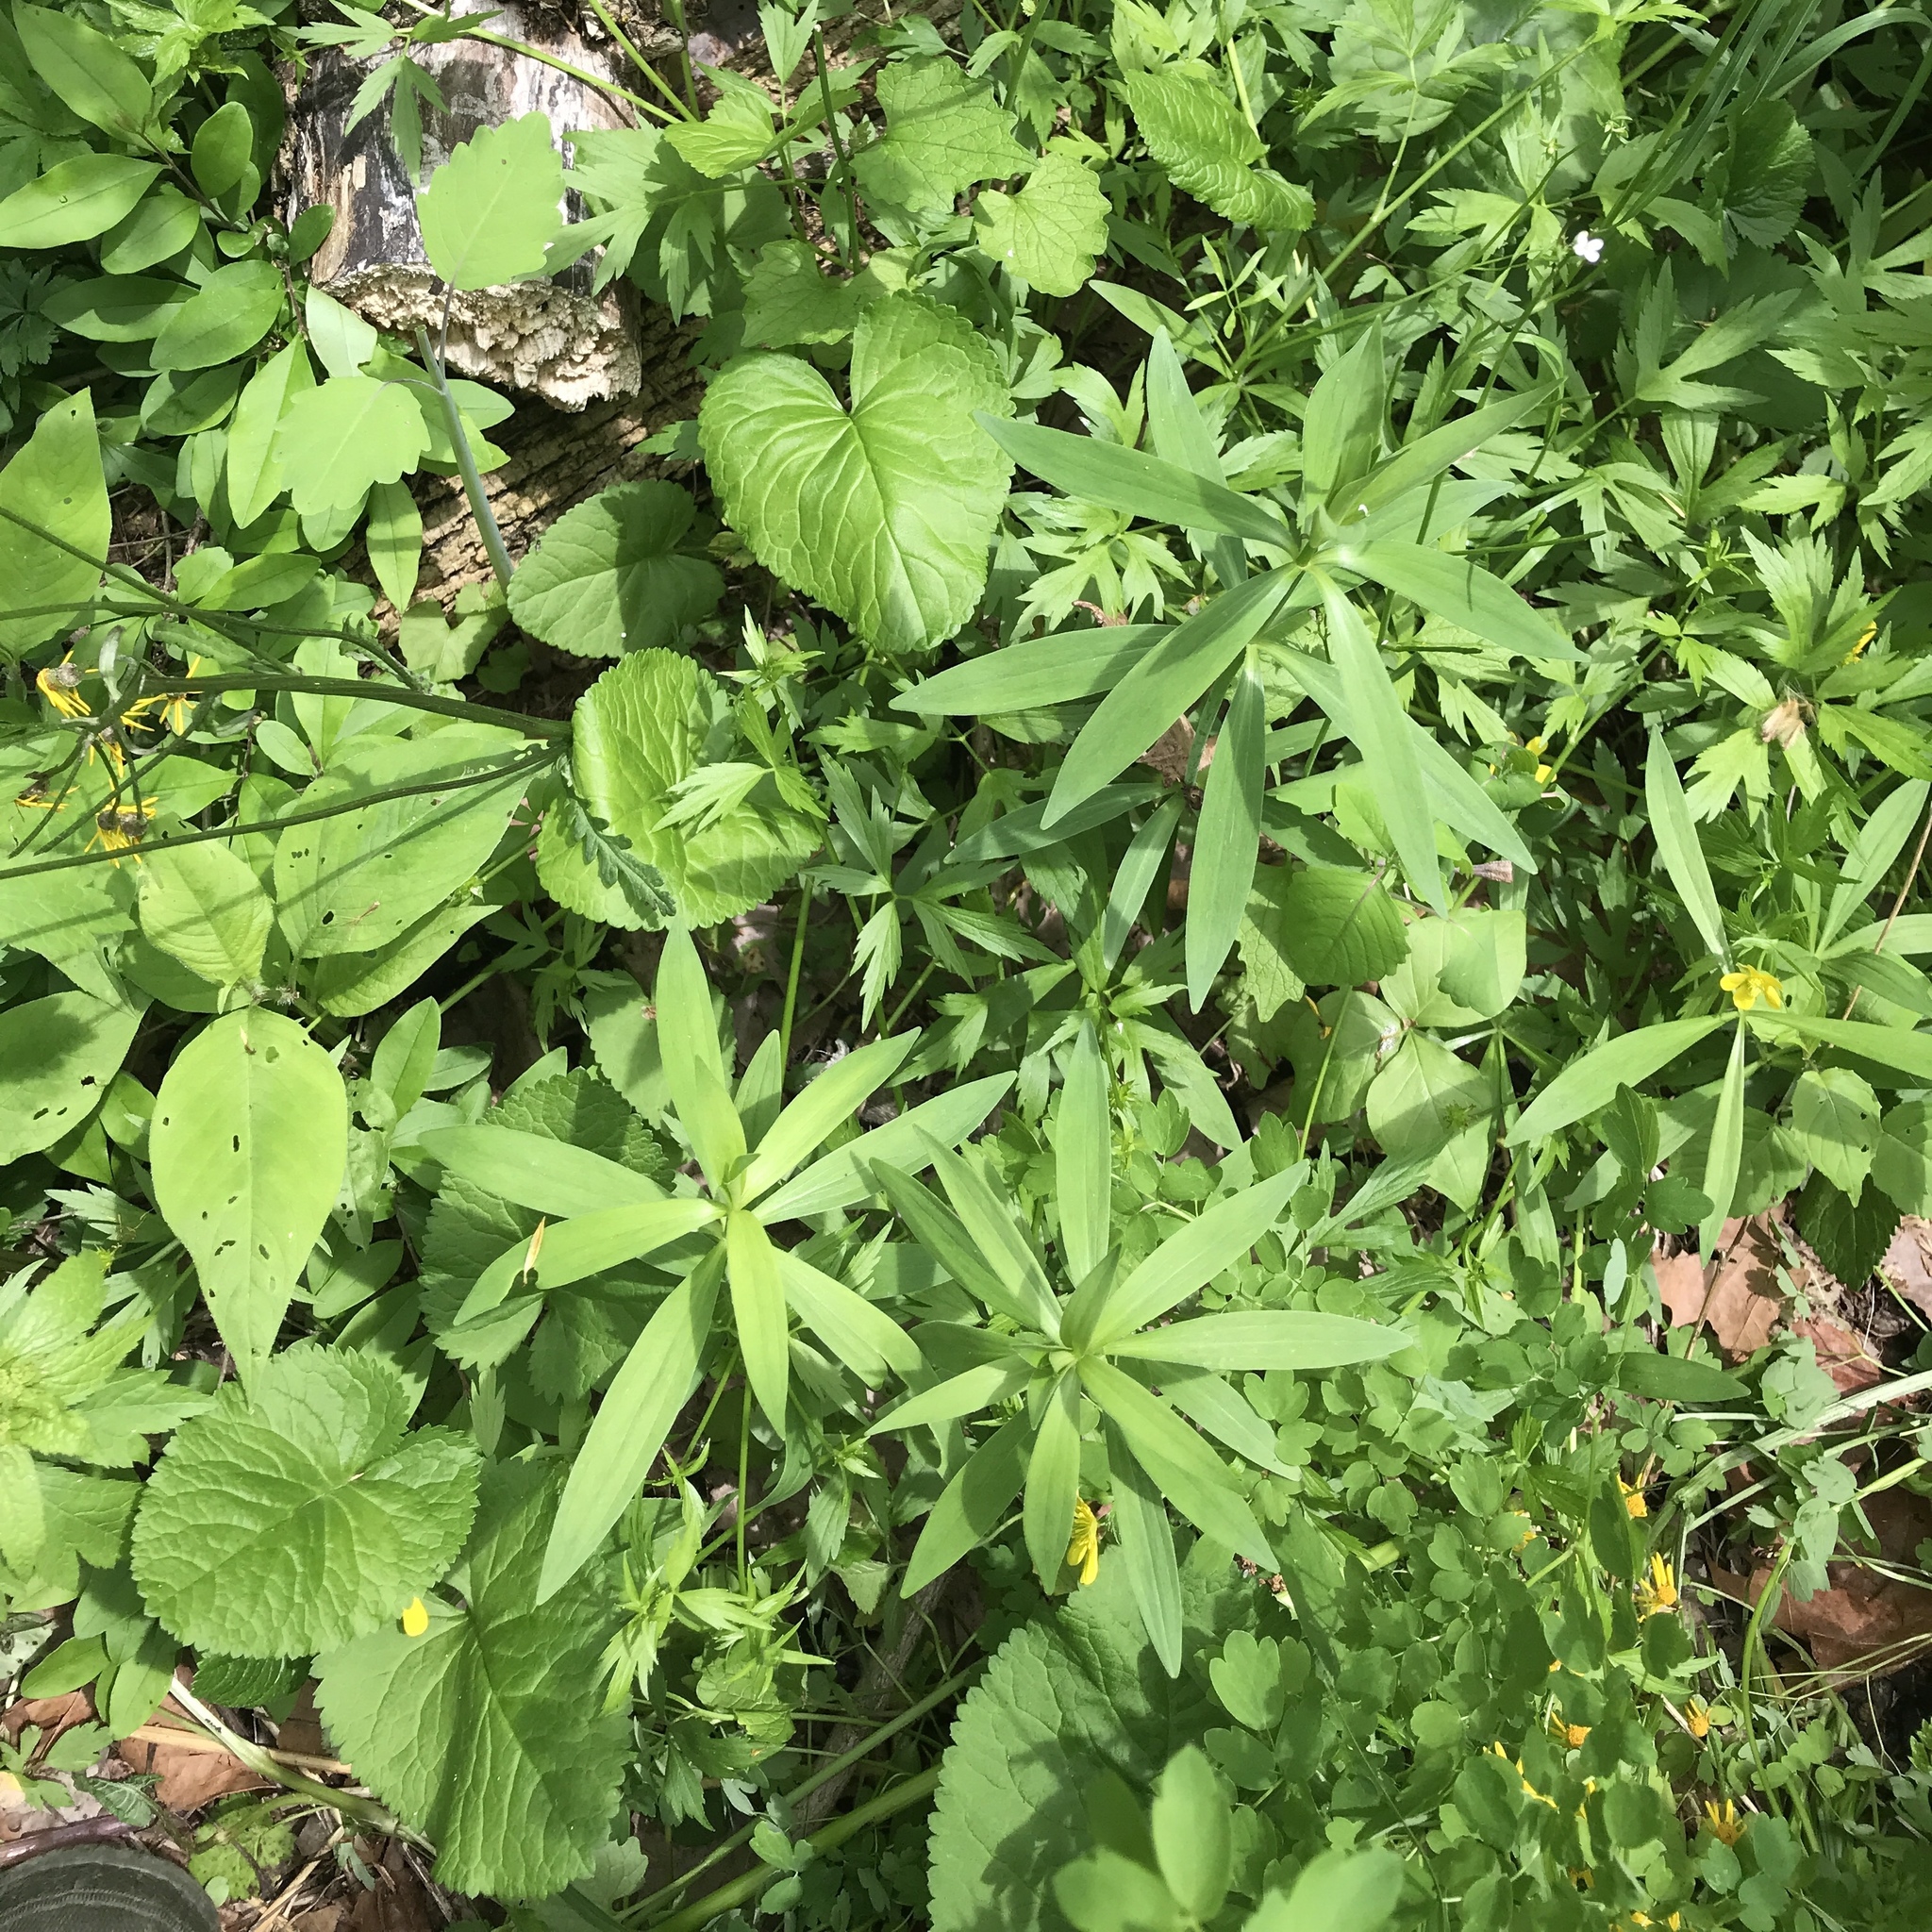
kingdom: Plantae
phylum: Tracheophyta
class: Liliopsida
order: Liliales
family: Liliaceae
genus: Lilium
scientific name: Lilium canadense
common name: Canada lily
